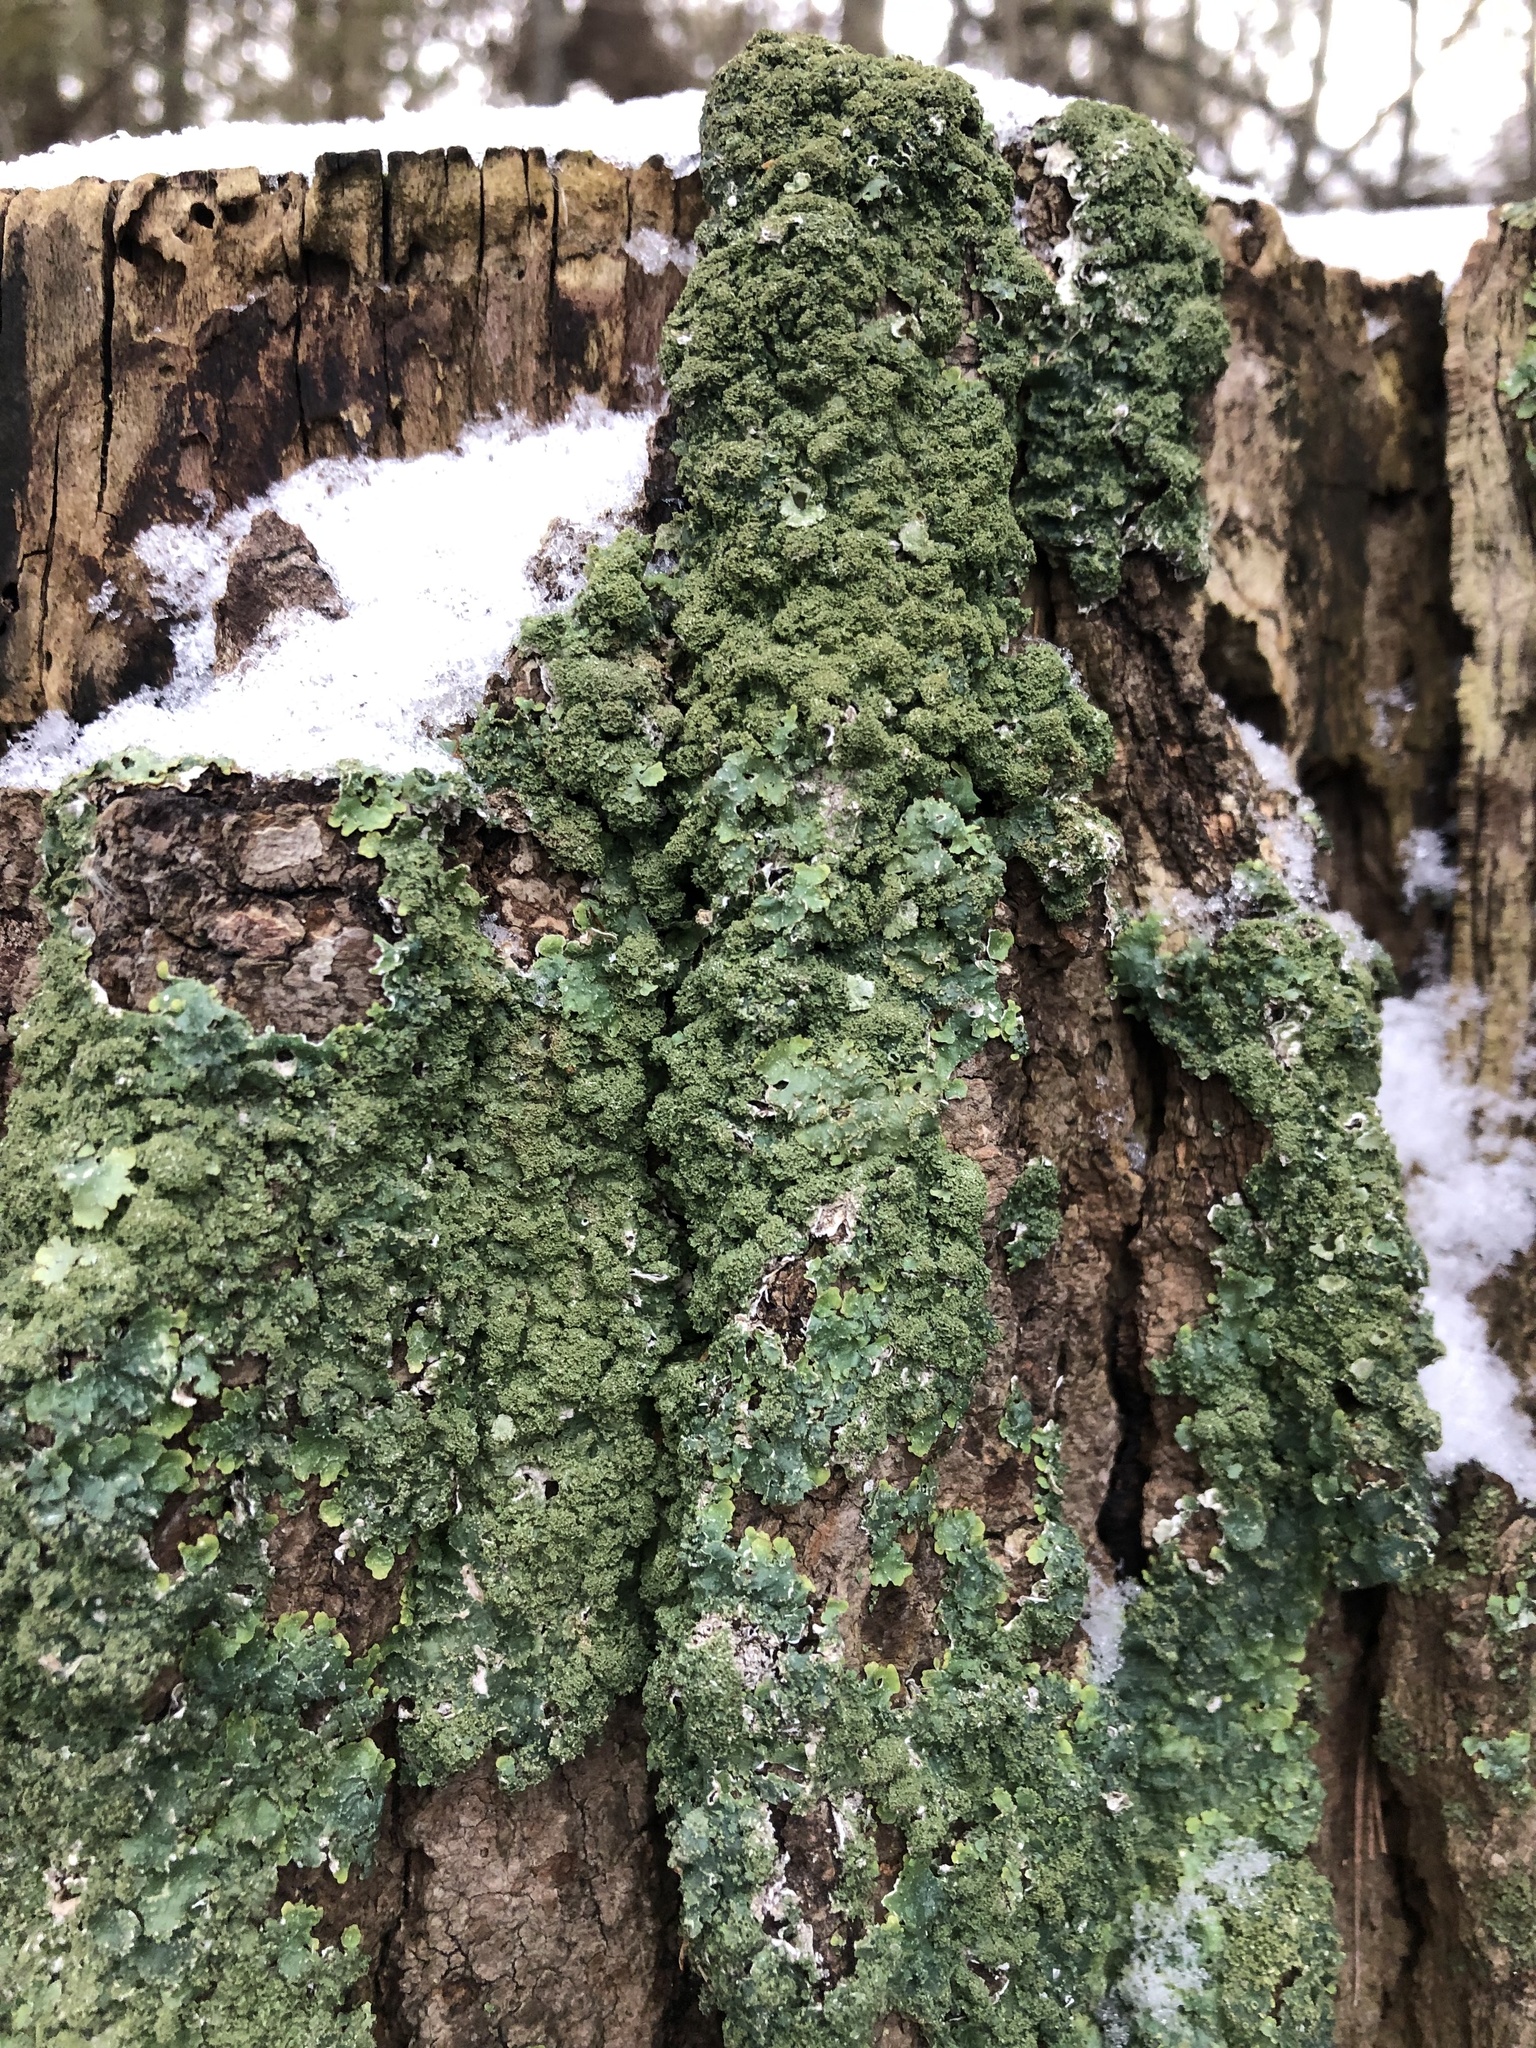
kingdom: Fungi
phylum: Ascomycota
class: Lecanoromycetes
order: Lecanorales
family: Parmeliaceae
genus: Punctelia
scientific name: Punctelia rudecta
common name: Rough speckled shield lichen
